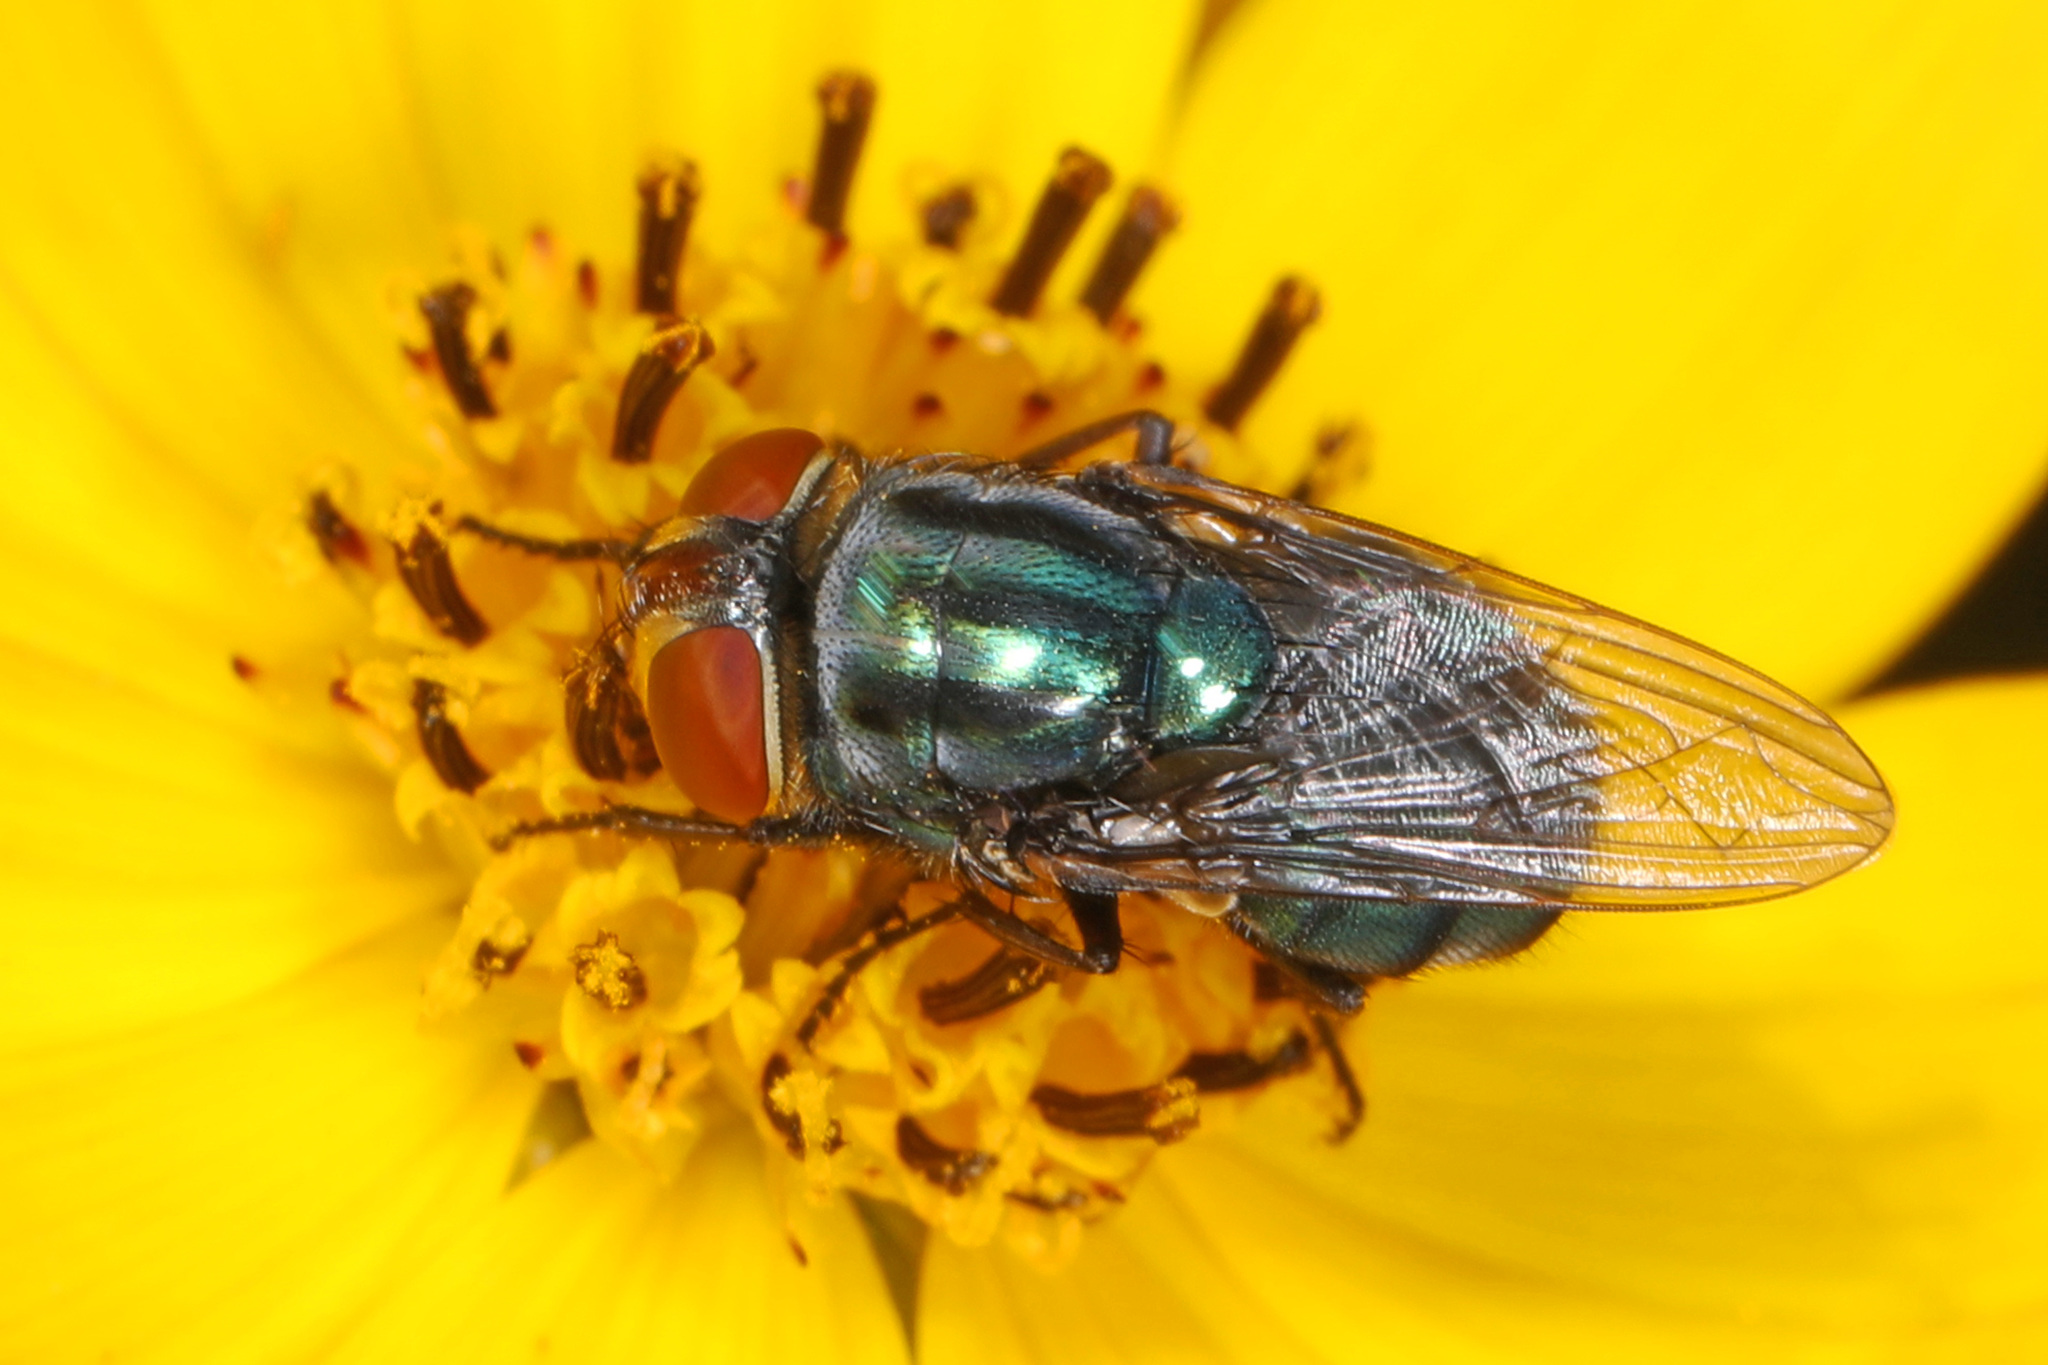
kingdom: Animalia
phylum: Arthropoda
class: Insecta
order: Diptera
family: Calliphoridae
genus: Cochliomyia
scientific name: Cochliomyia macellaria
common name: Secondary screwworm
